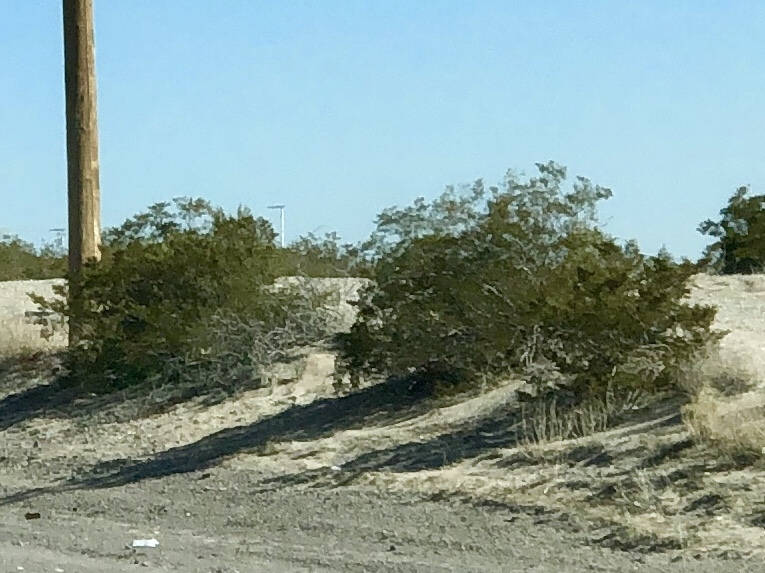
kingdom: Plantae
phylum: Tracheophyta
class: Magnoliopsida
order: Zygophyllales
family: Zygophyllaceae
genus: Larrea
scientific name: Larrea tridentata
